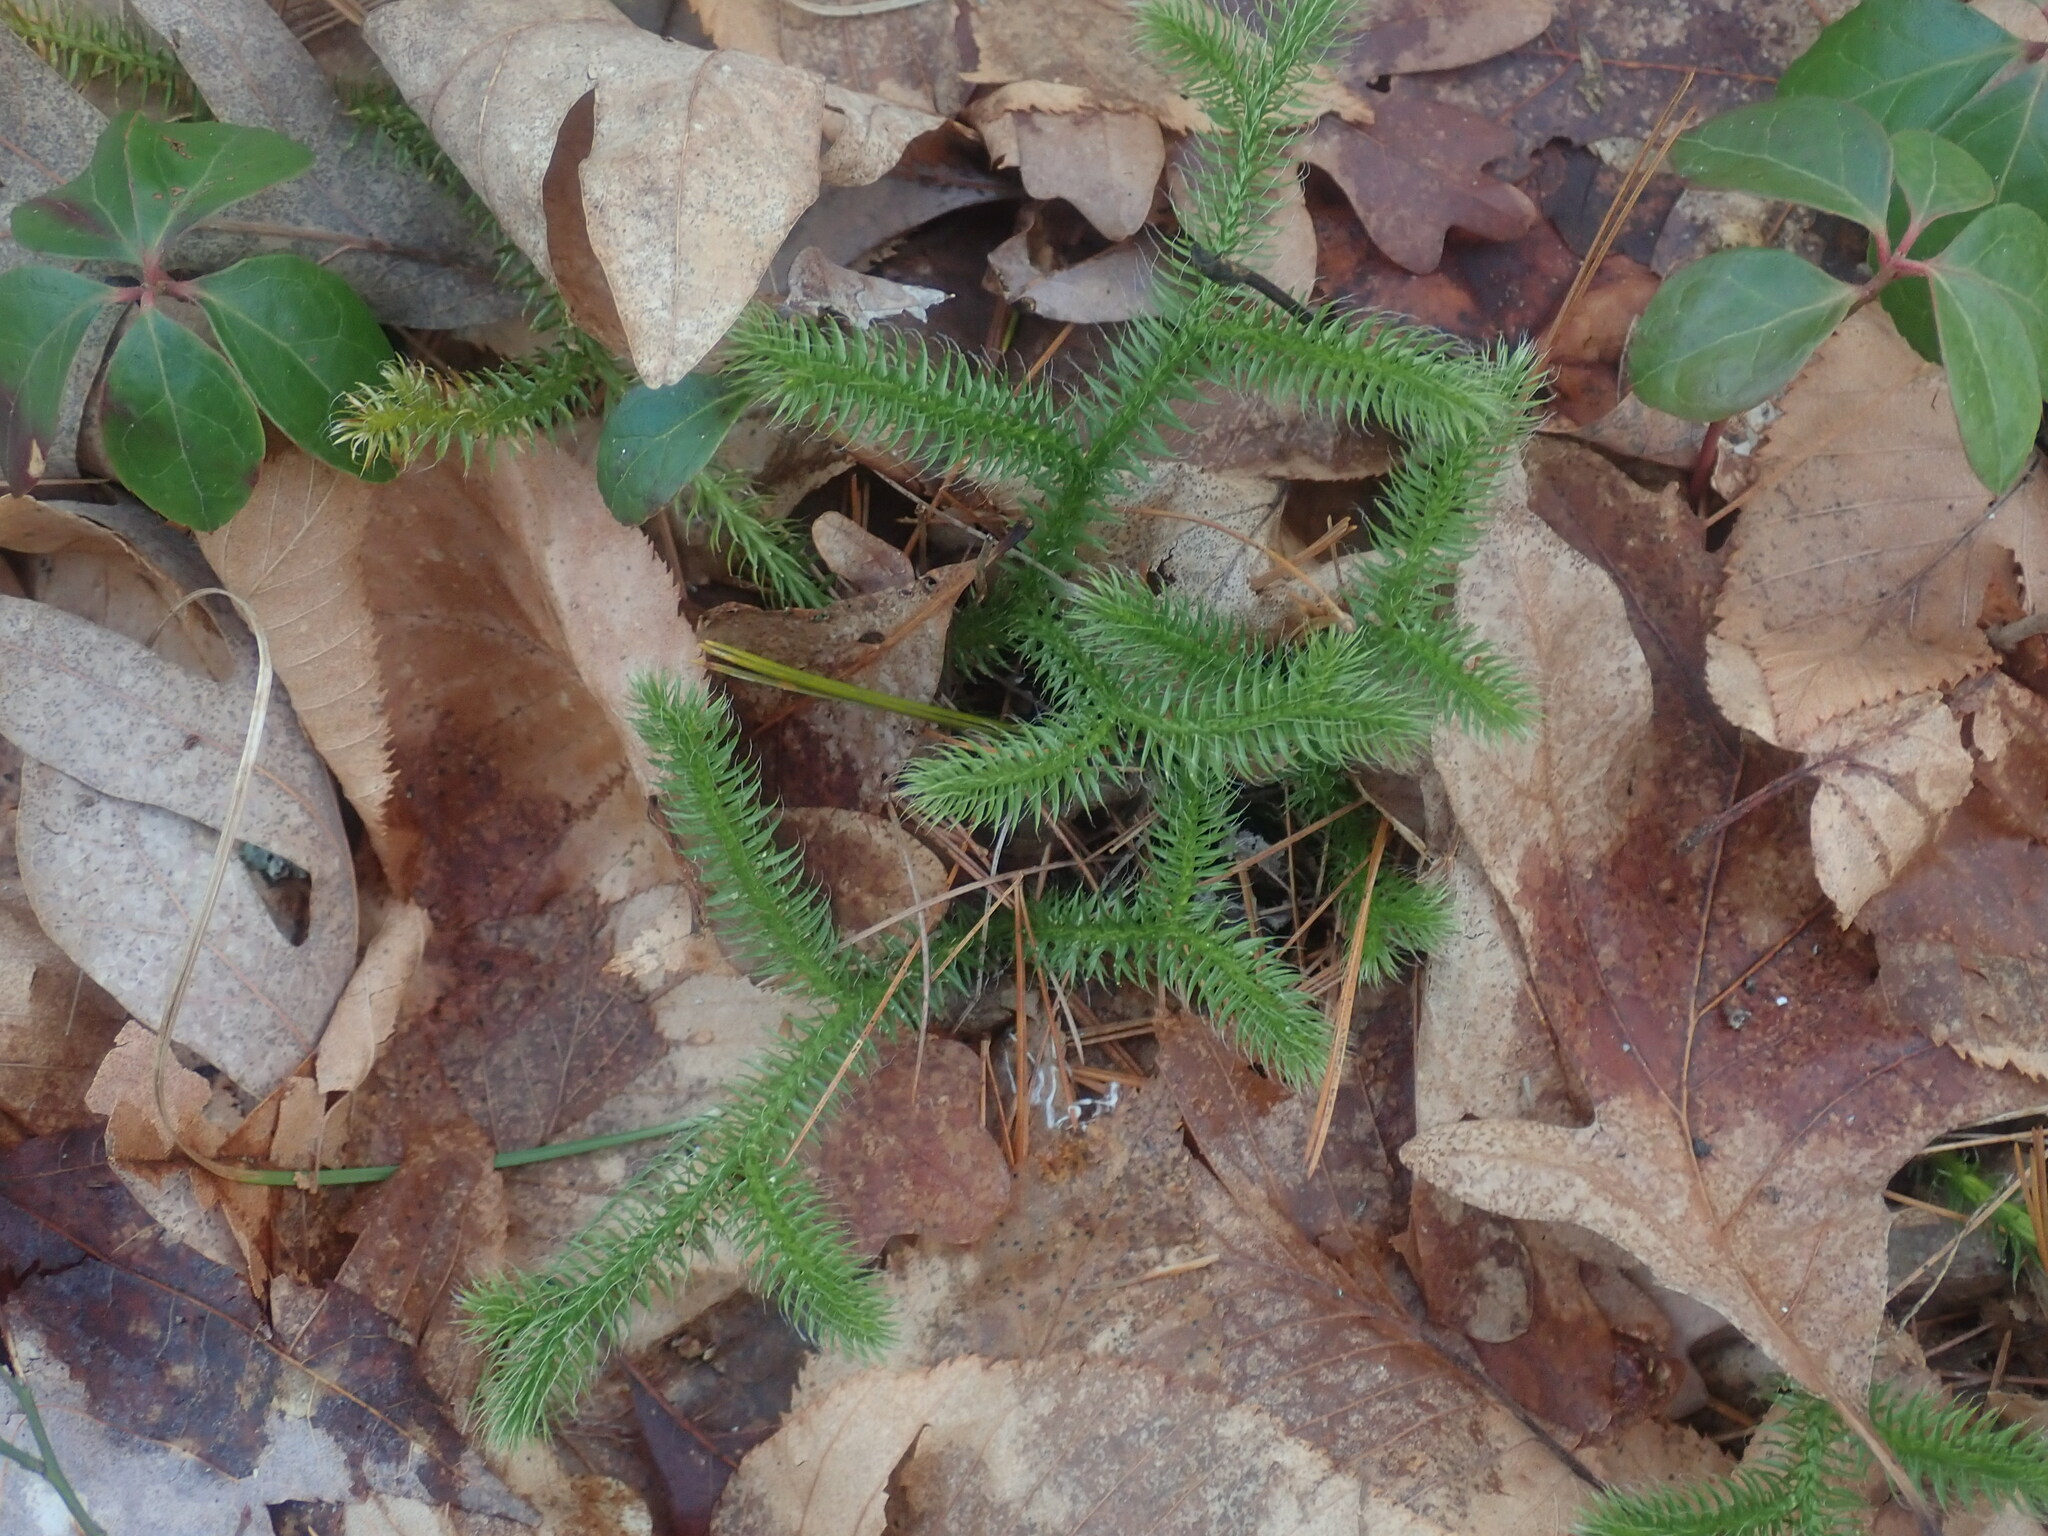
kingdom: Plantae
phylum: Tracheophyta
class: Lycopodiopsida
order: Lycopodiales
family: Lycopodiaceae
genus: Lycopodium
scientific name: Lycopodium clavatum
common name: Stag's-horn clubmoss
